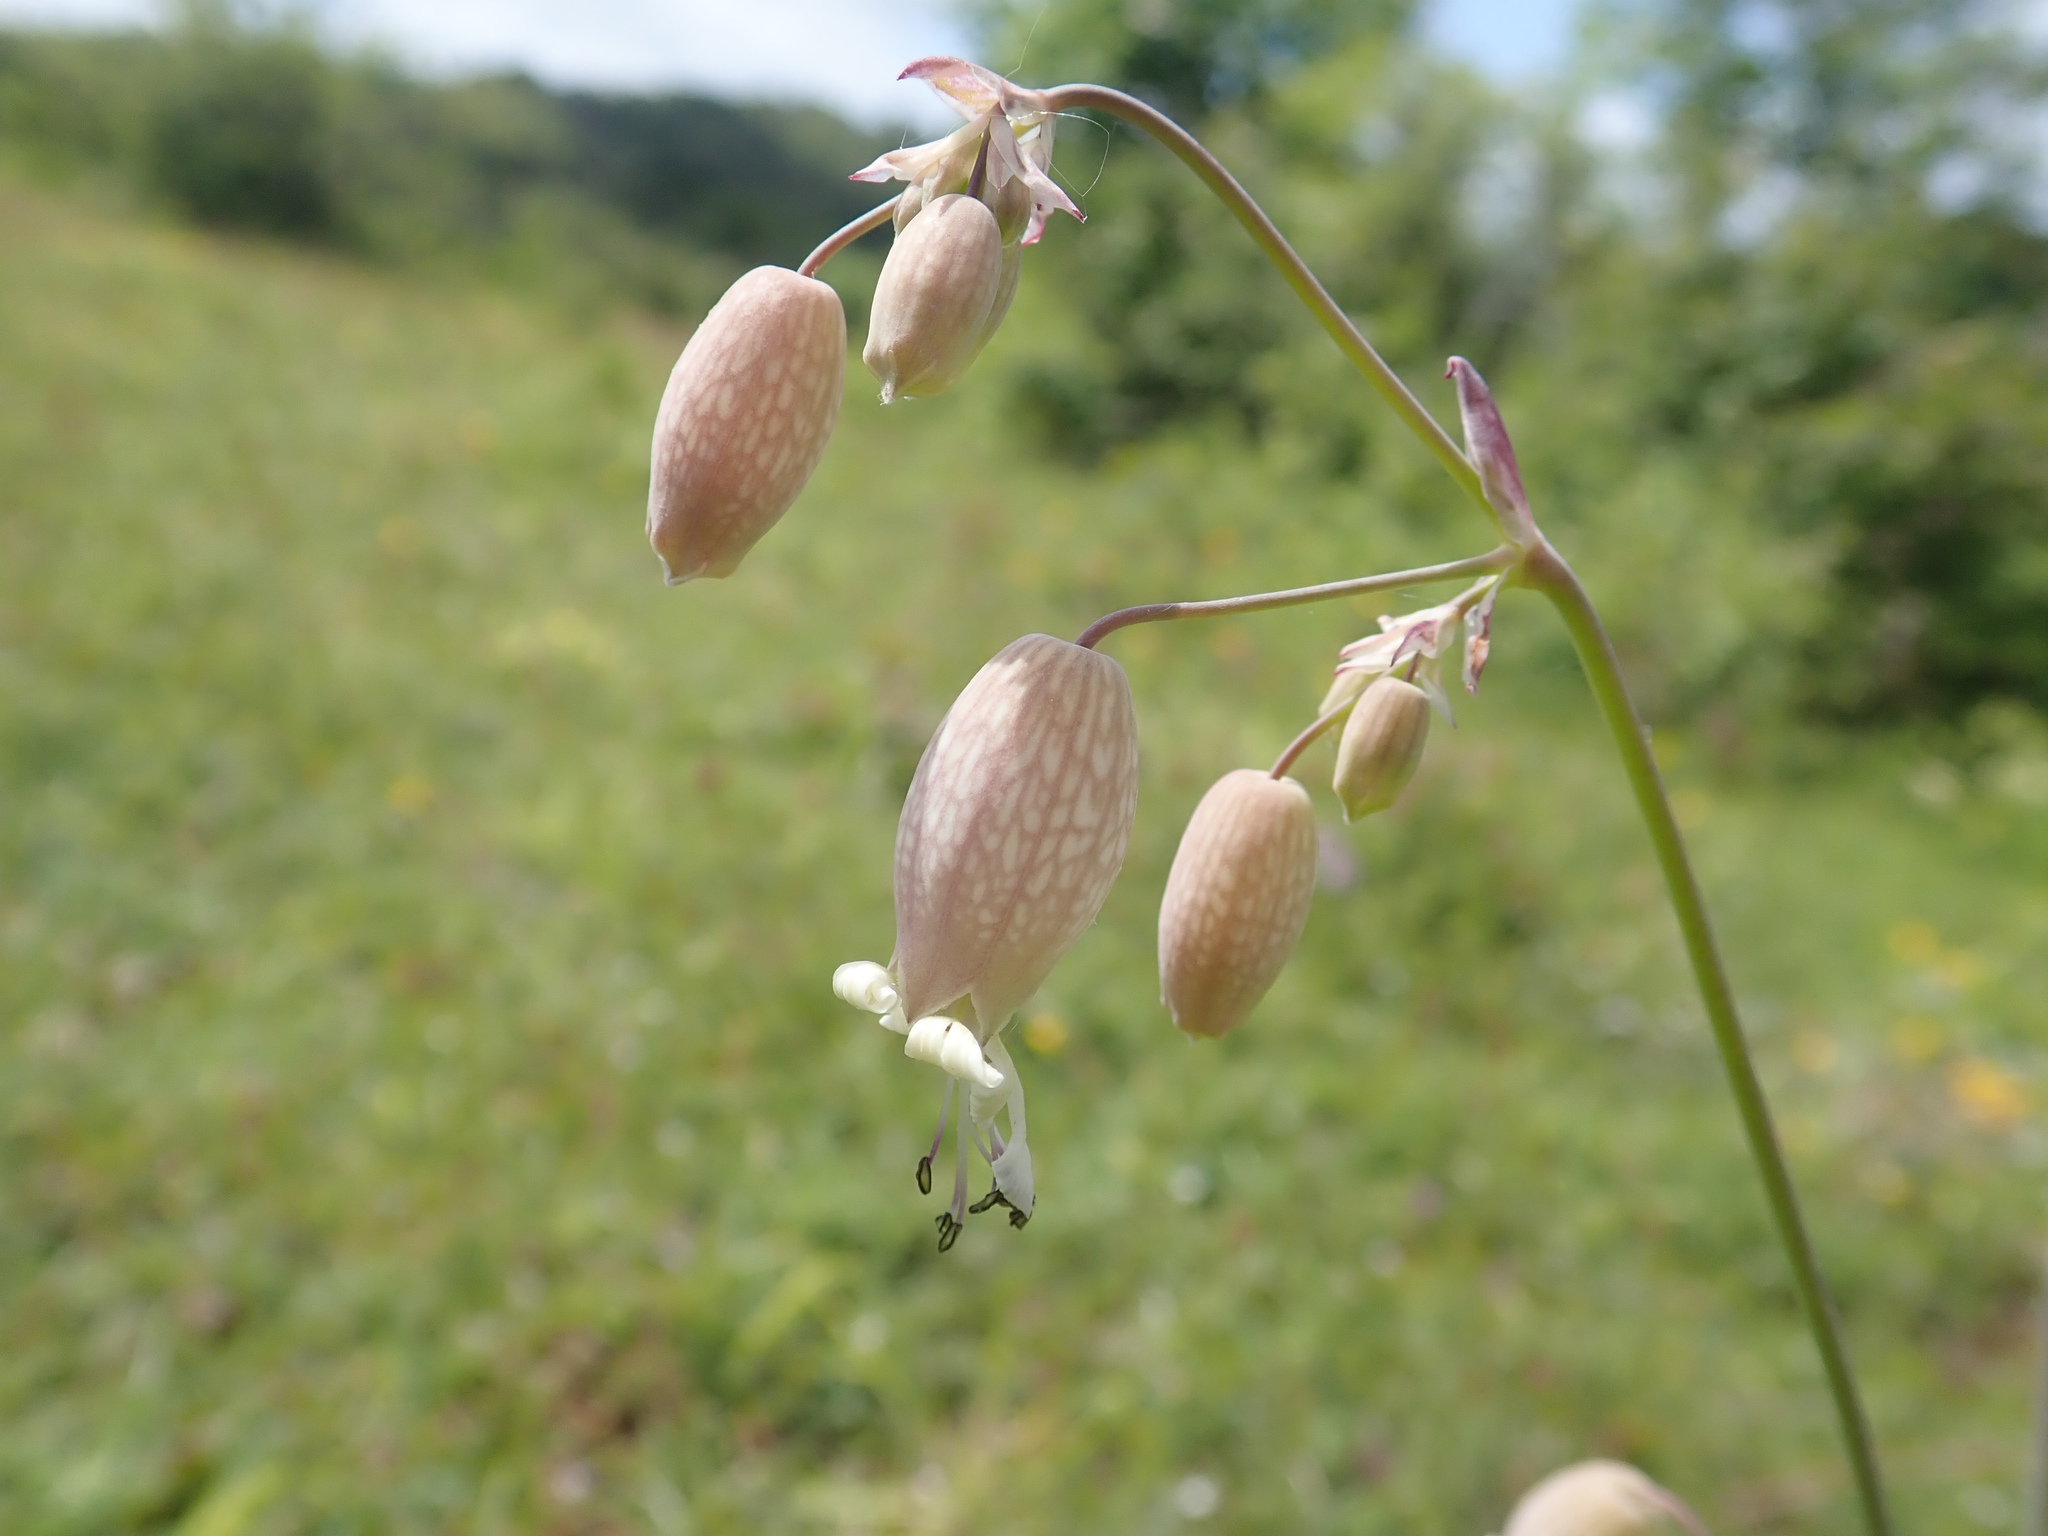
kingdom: Plantae
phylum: Tracheophyta
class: Magnoliopsida
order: Caryophyllales
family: Caryophyllaceae
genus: Silene
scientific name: Silene vulgaris
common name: Bladder campion
